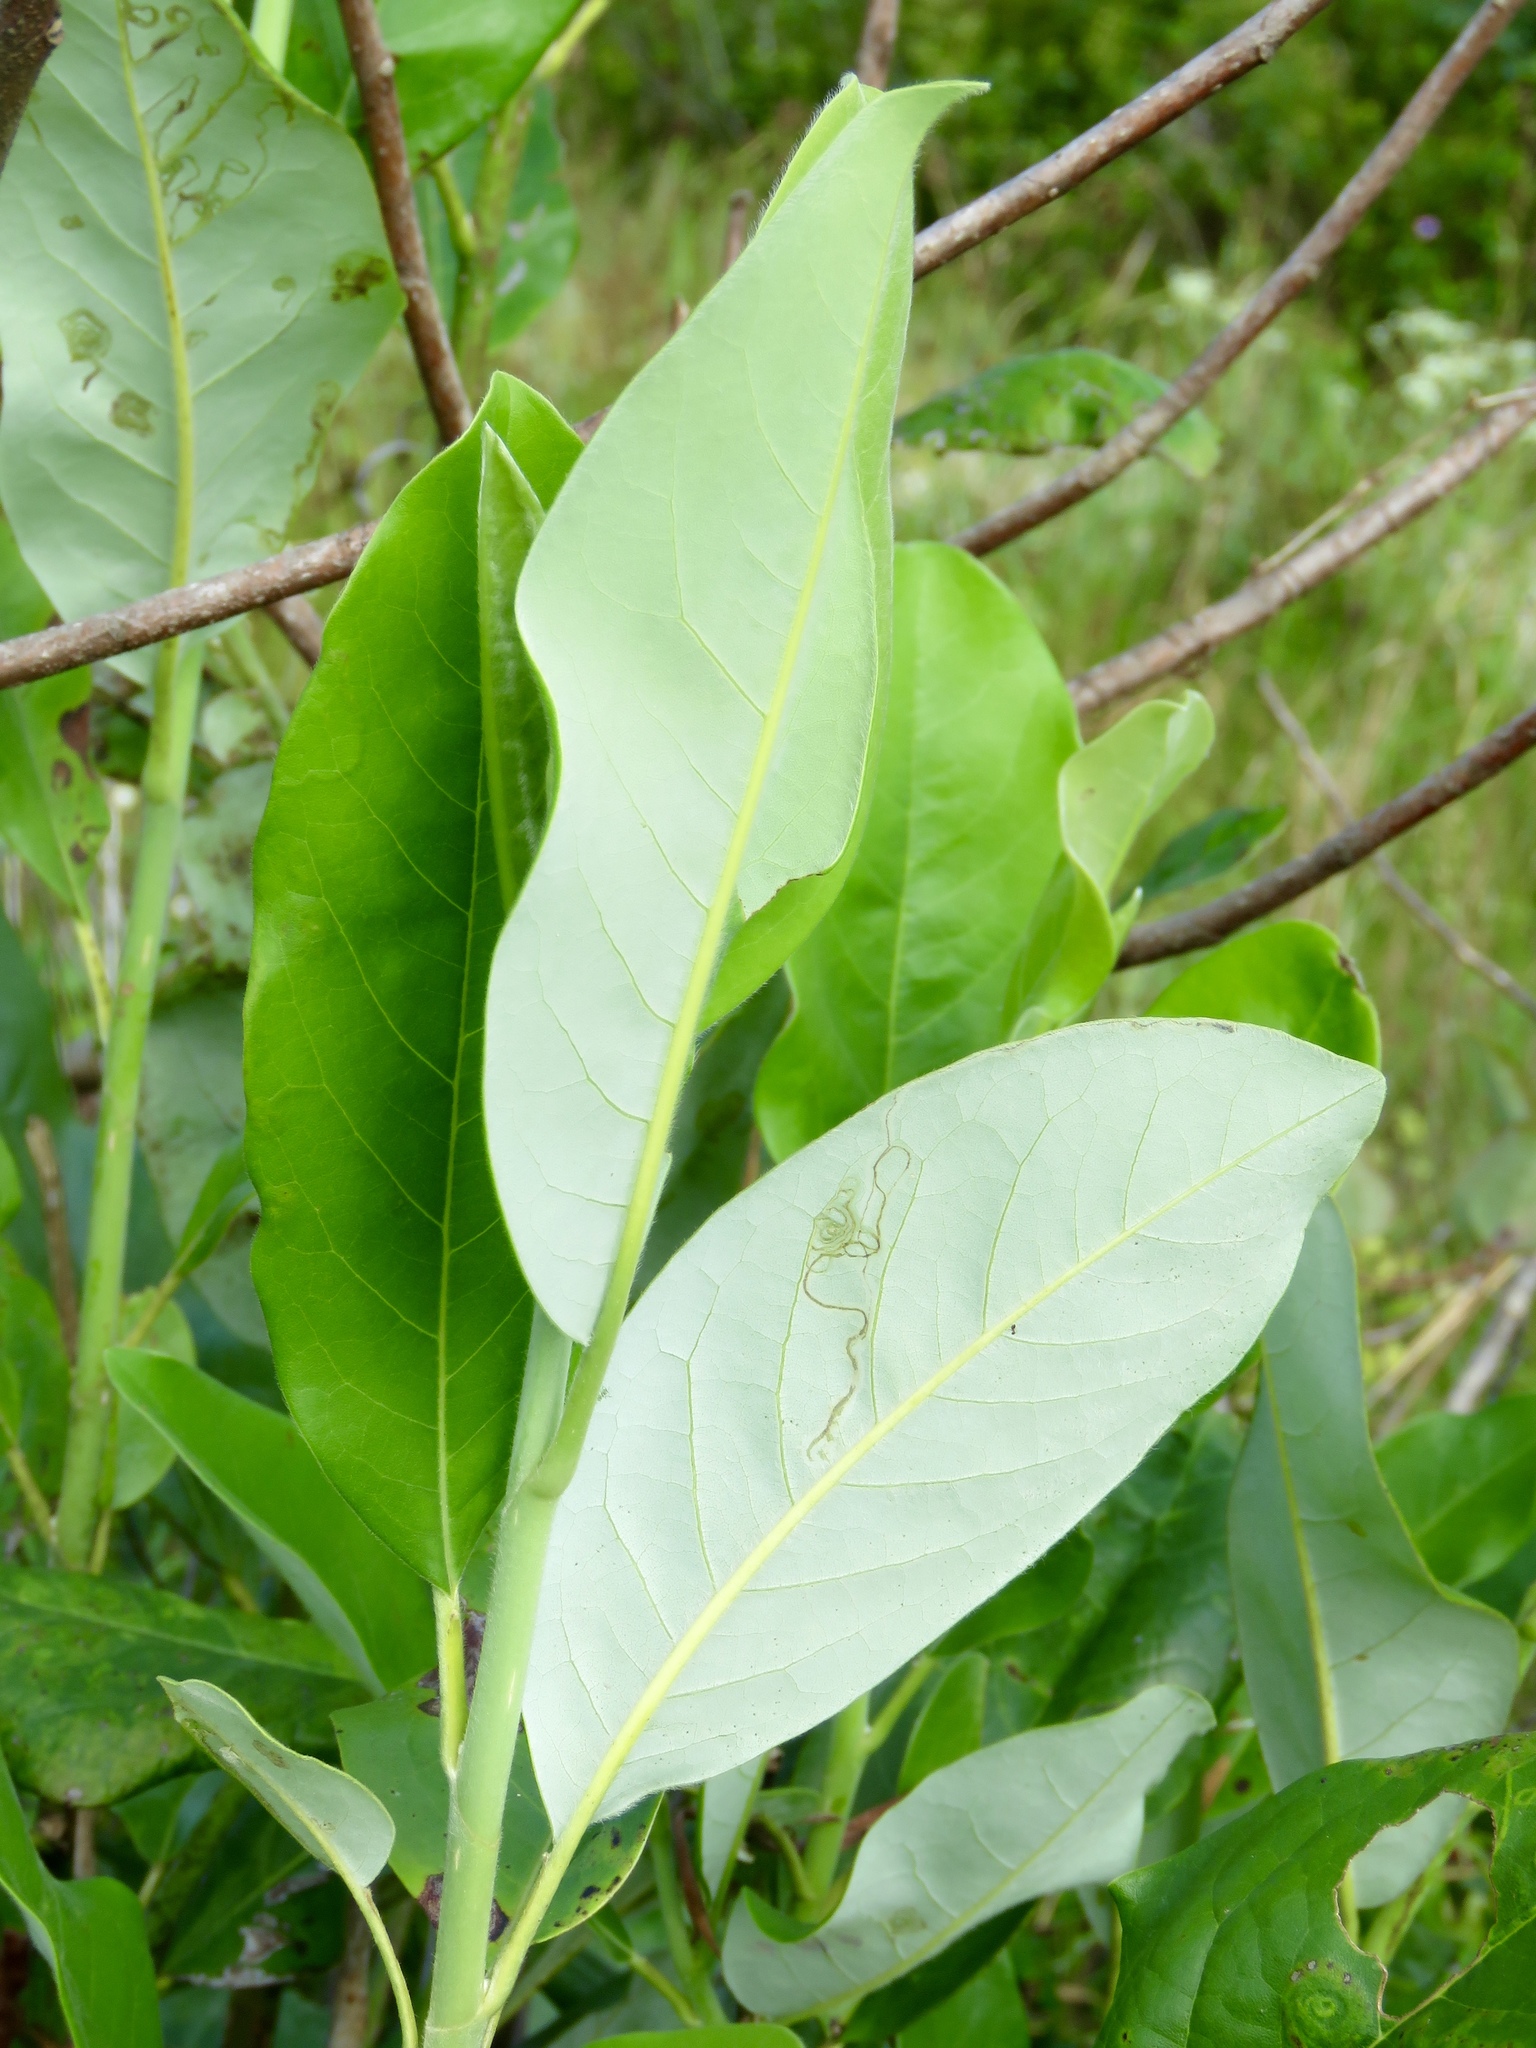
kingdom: Plantae
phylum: Tracheophyta
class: Magnoliopsida
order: Magnoliales
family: Magnoliaceae
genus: Magnolia
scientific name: Magnolia virginiana
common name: Swamp bay
